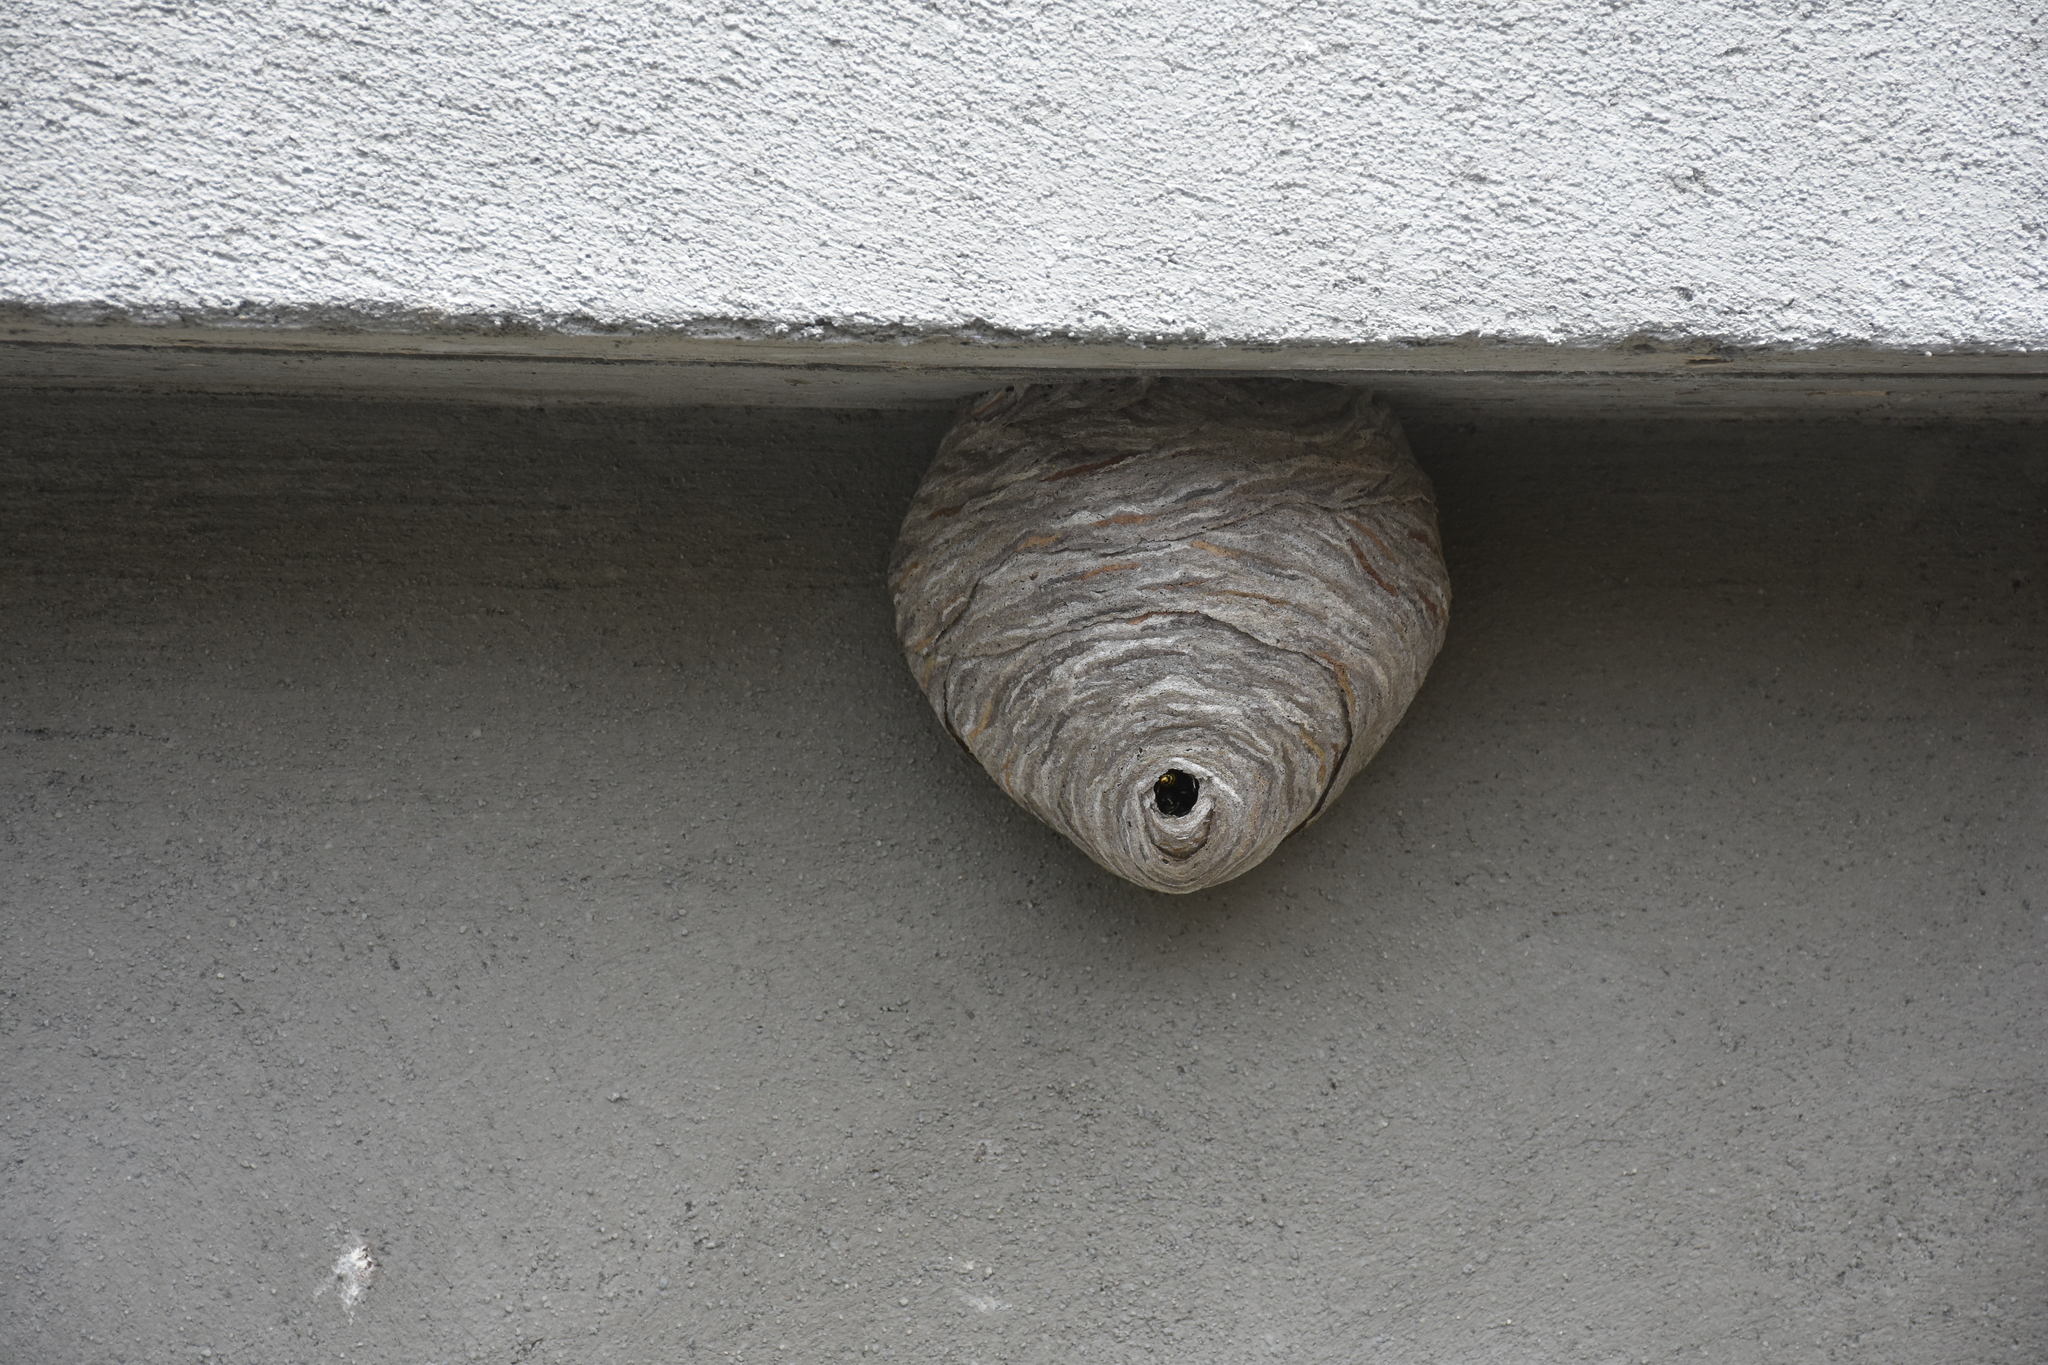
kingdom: Animalia
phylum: Arthropoda
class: Insecta
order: Hymenoptera
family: Vespidae
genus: Dolichovespula
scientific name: Dolichovespula
